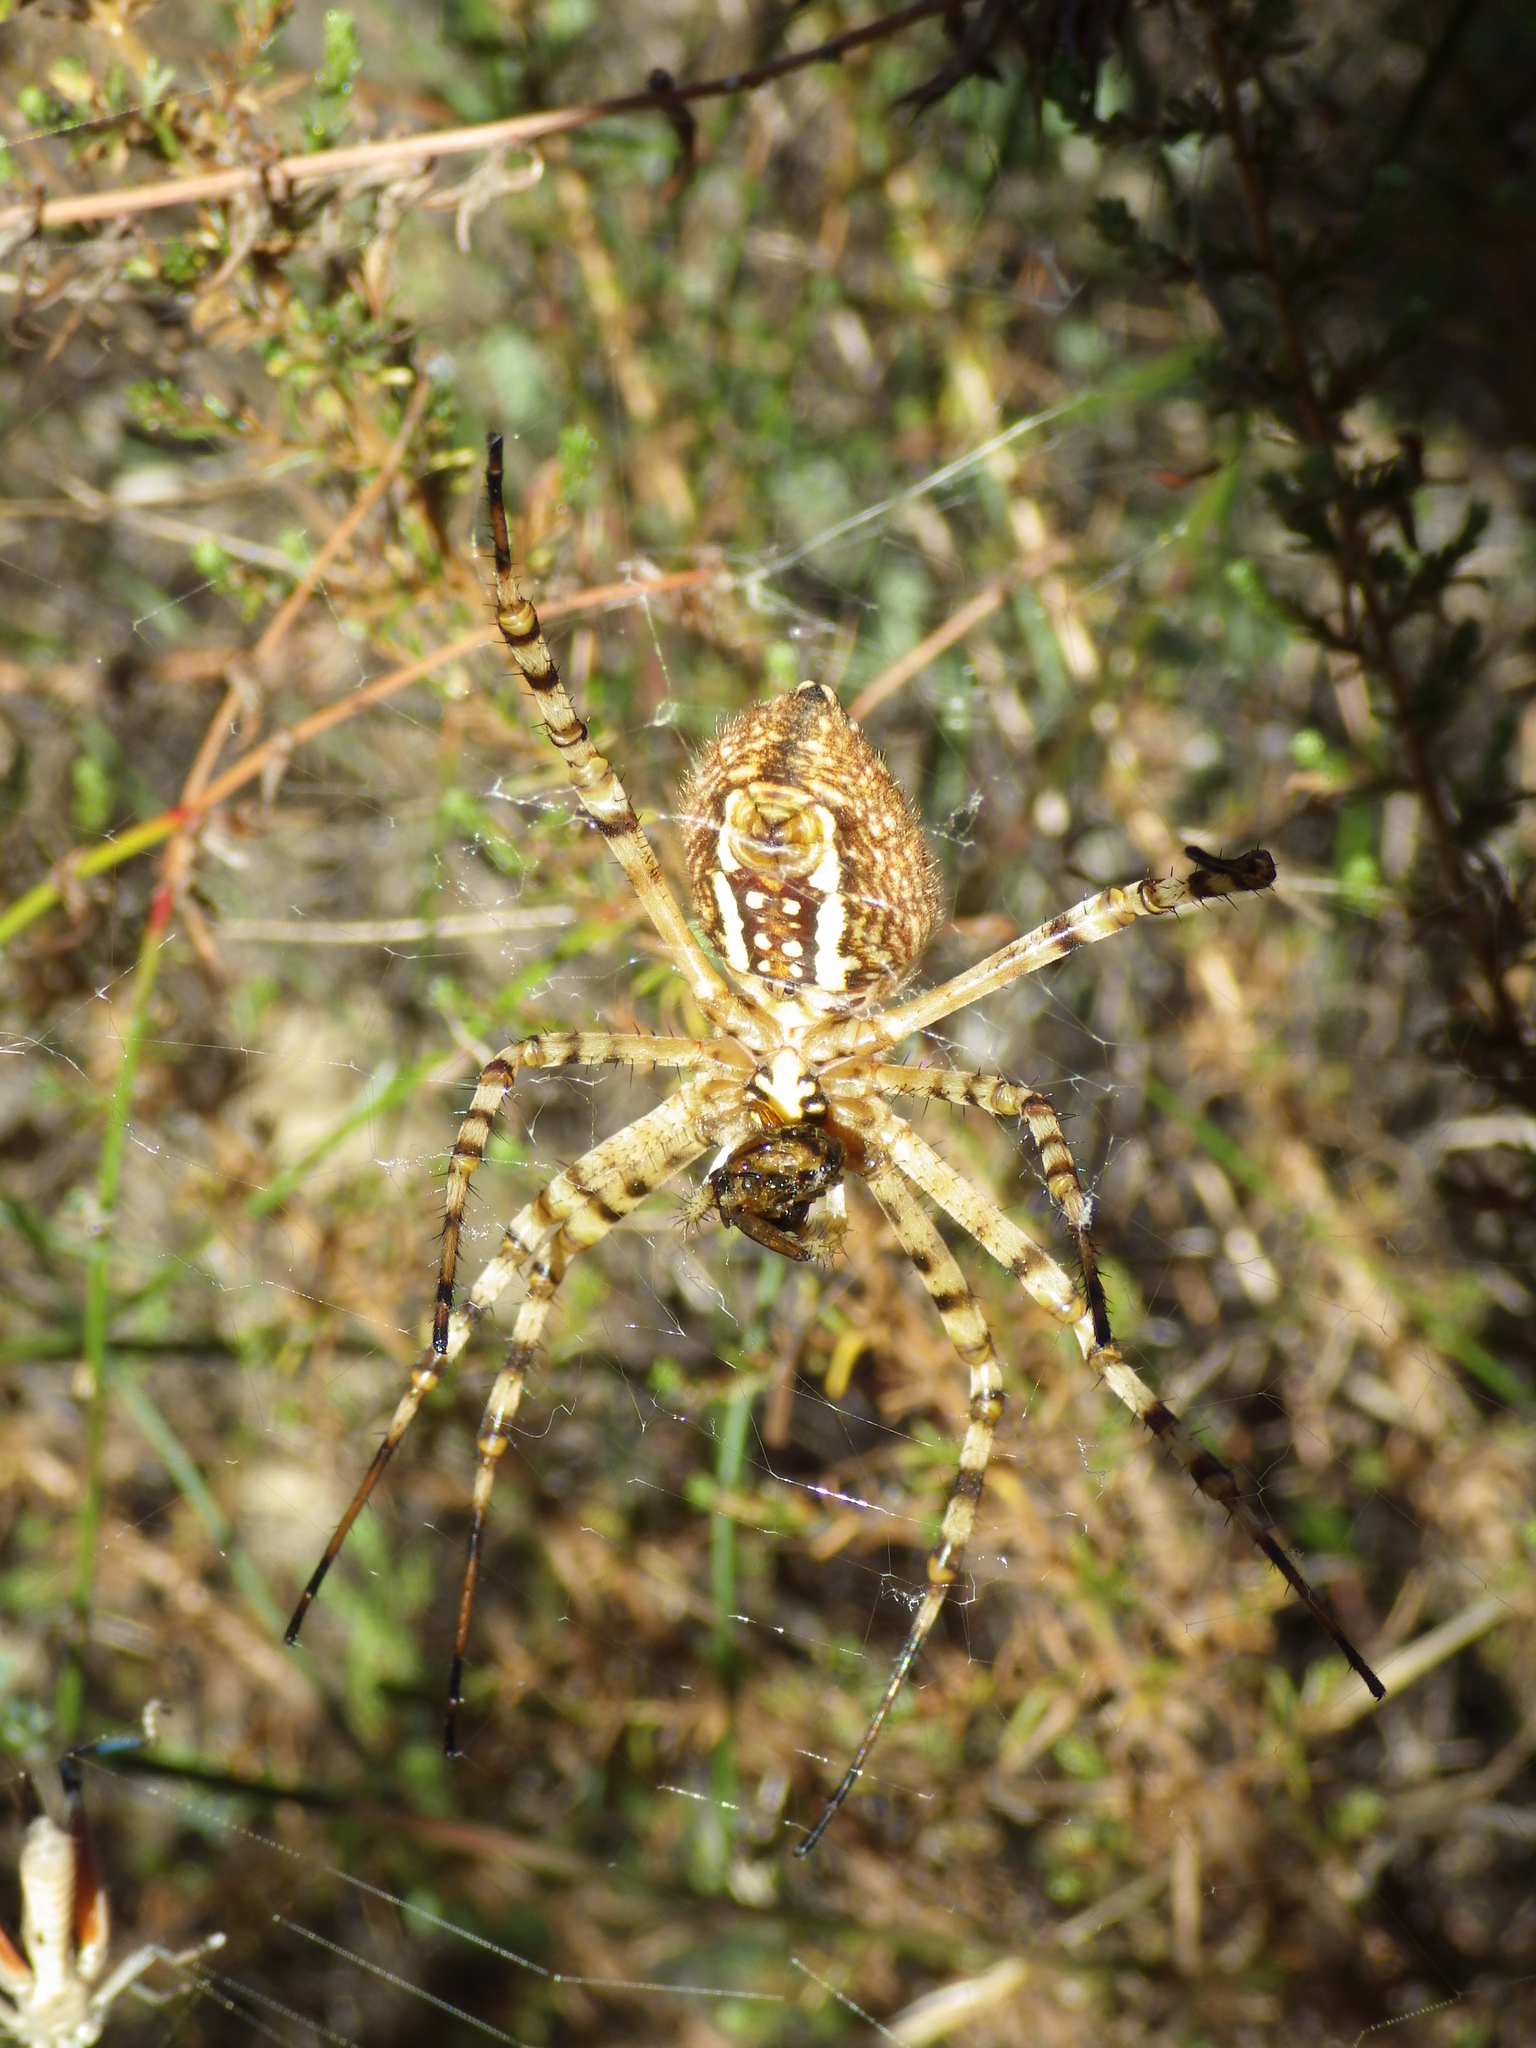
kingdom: Animalia
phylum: Arthropoda
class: Arachnida
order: Araneae
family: Araneidae
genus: Argiope
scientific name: Argiope trifasciata
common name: Banded garden spider
